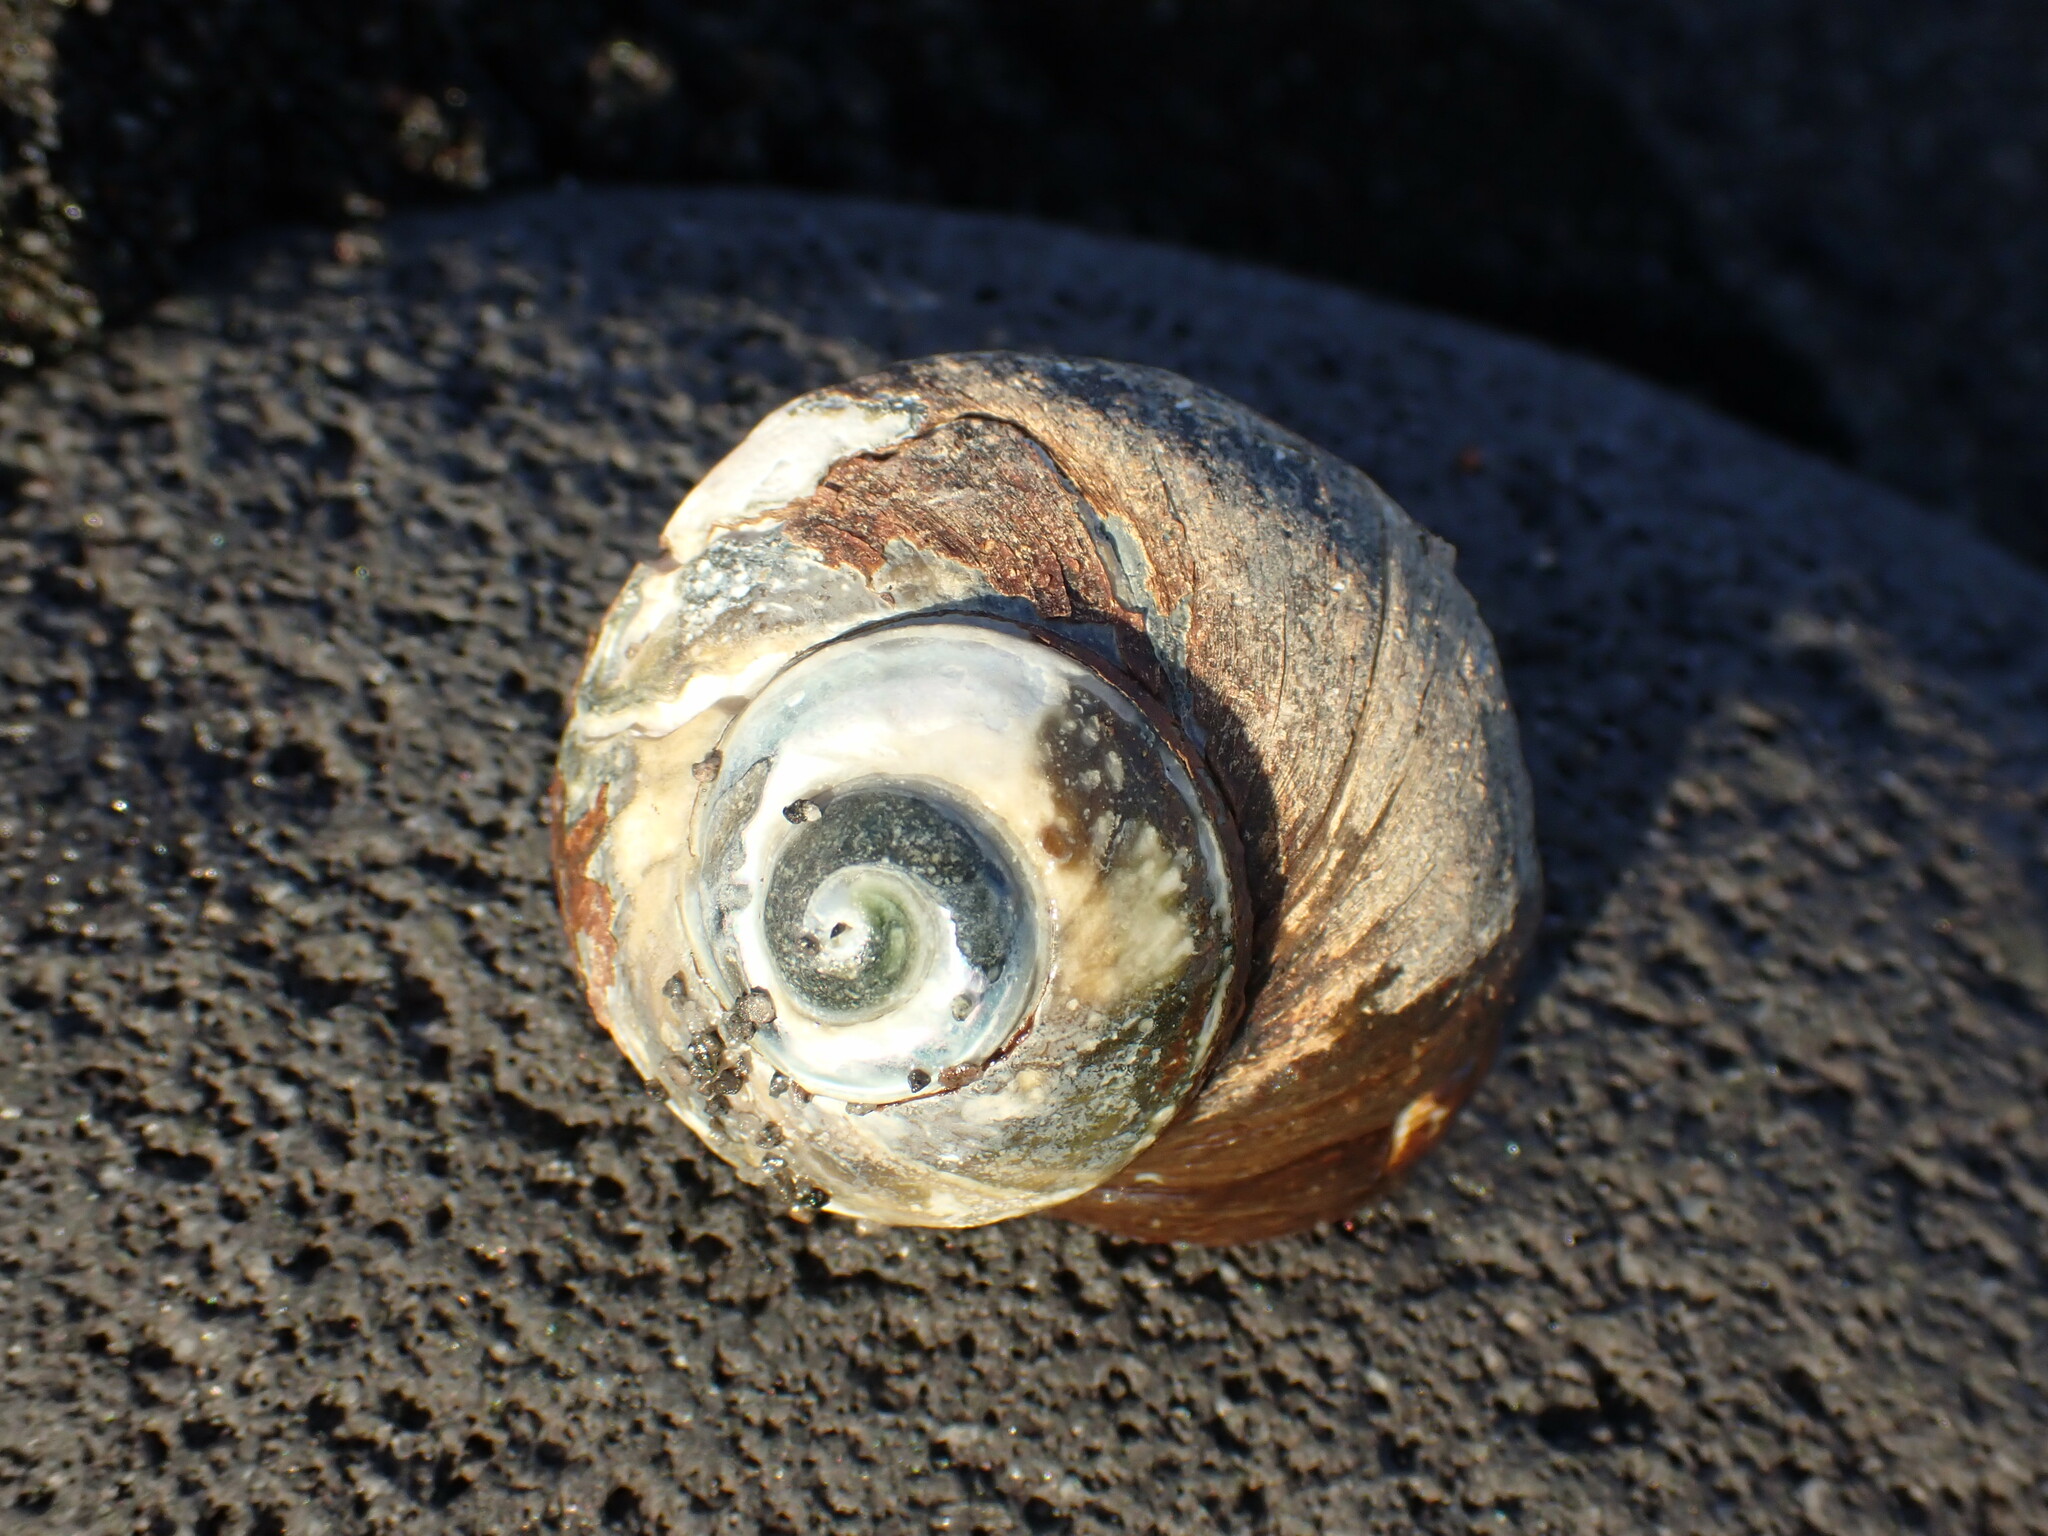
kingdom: Animalia
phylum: Mollusca
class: Gastropoda
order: Trochida
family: Turbinidae
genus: Lunella
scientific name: Lunella smaragda
